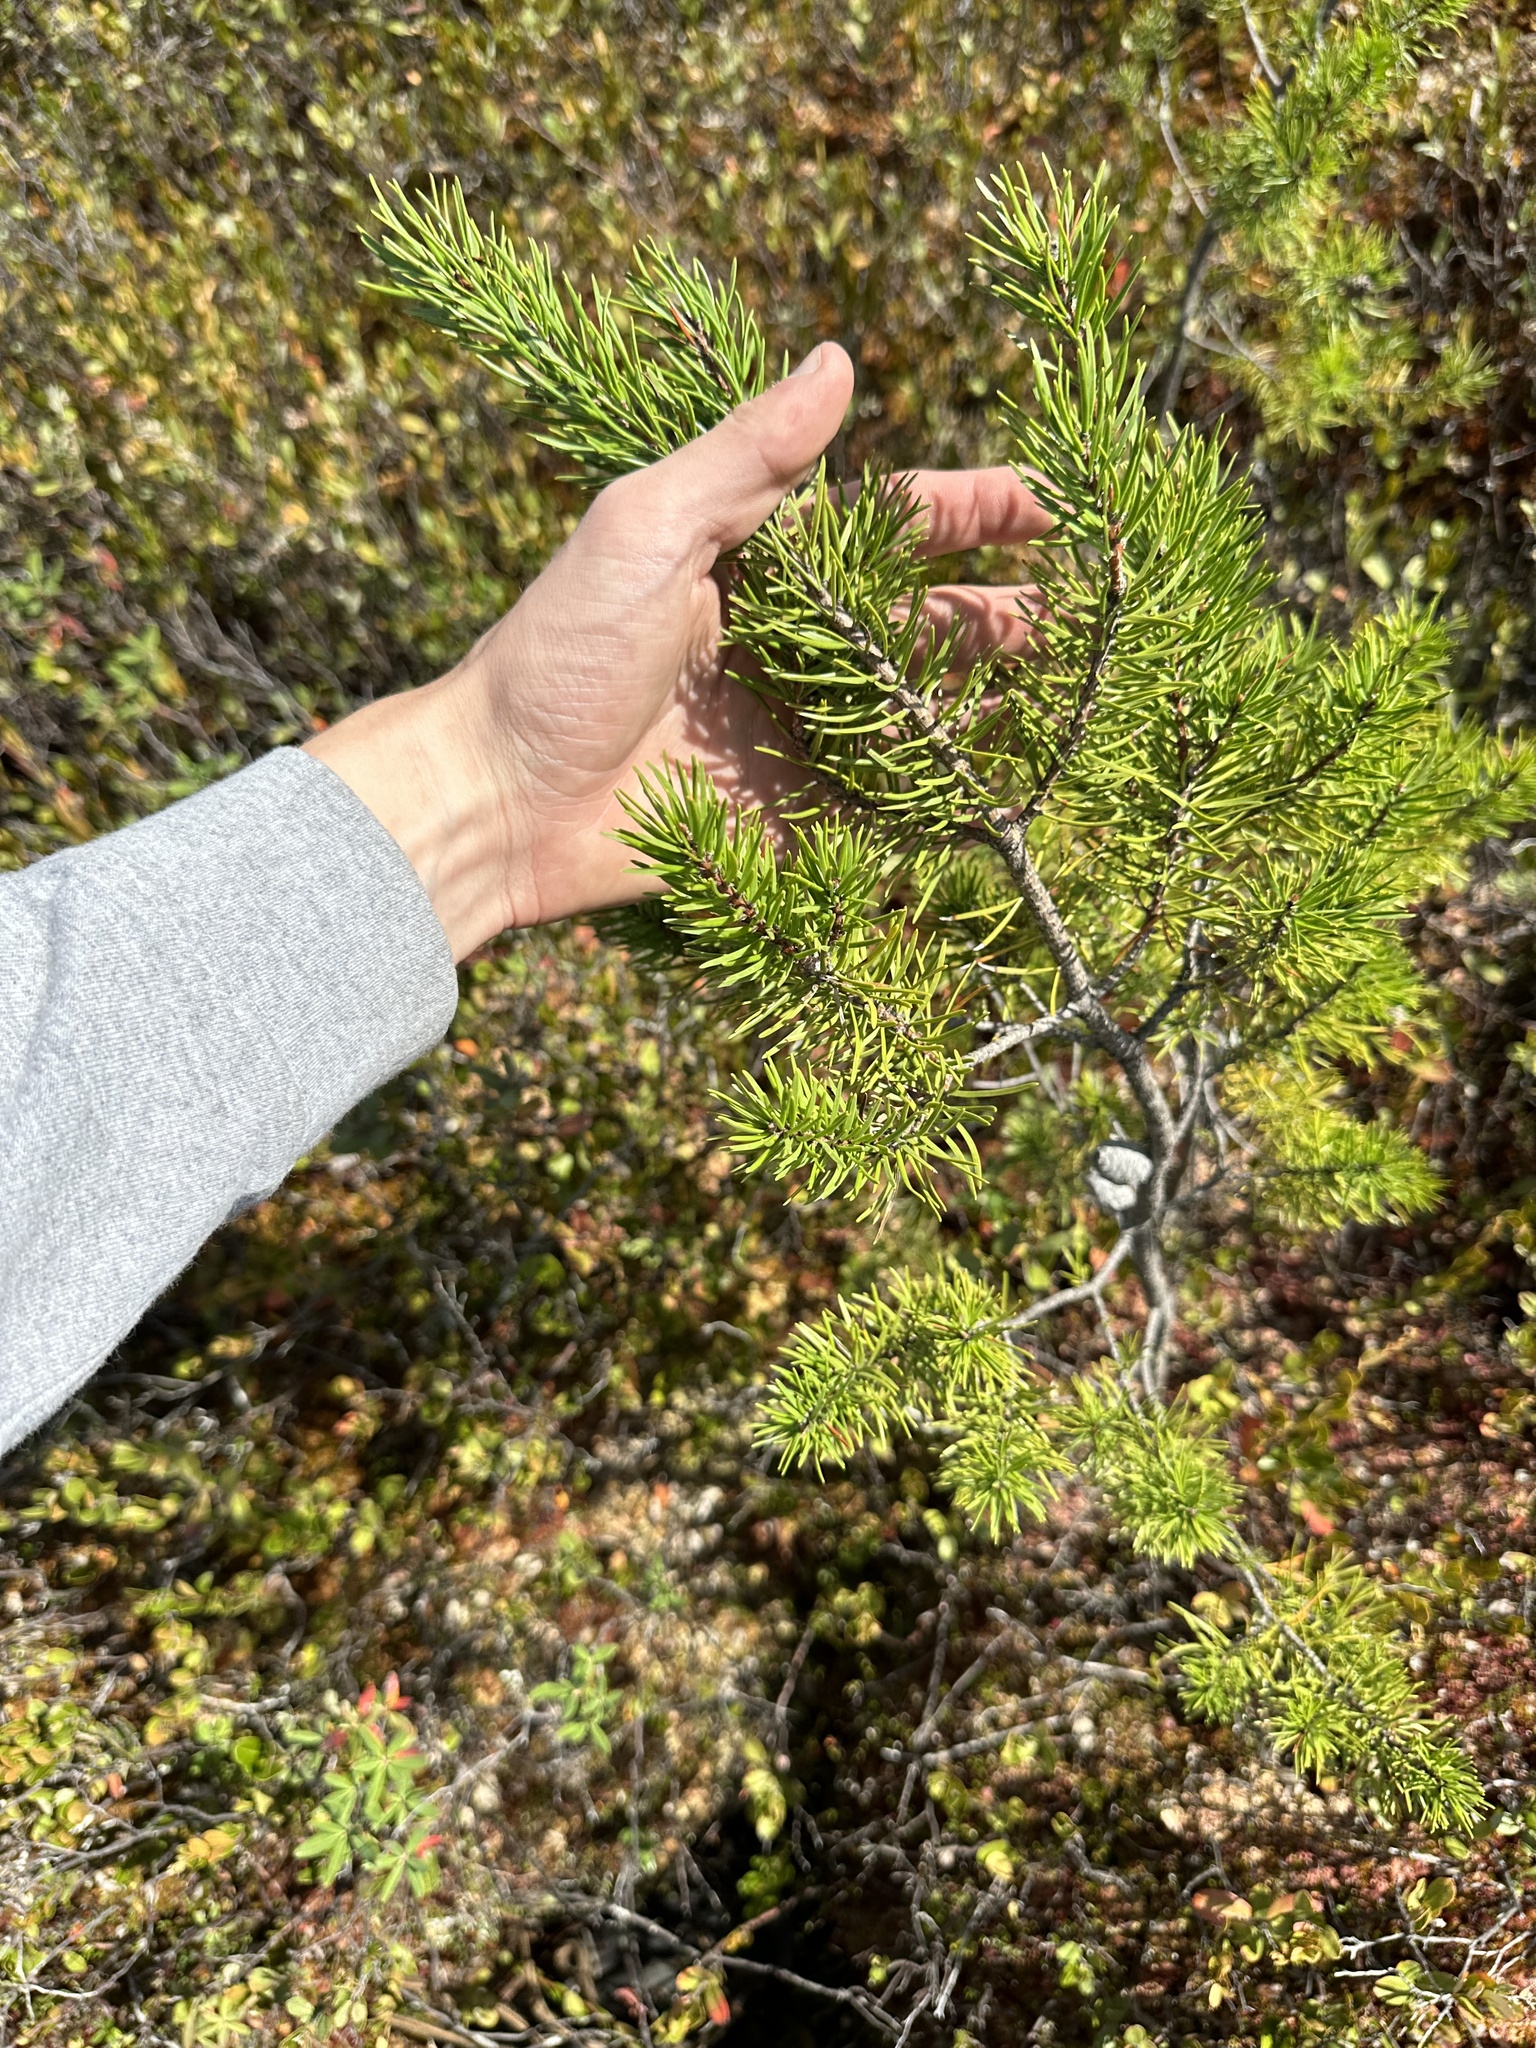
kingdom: Plantae
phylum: Tracheophyta
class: Pinopsida
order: Pinales
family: Pinaceae
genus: Pinus
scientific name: Pinus banksiana
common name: Jack pine
